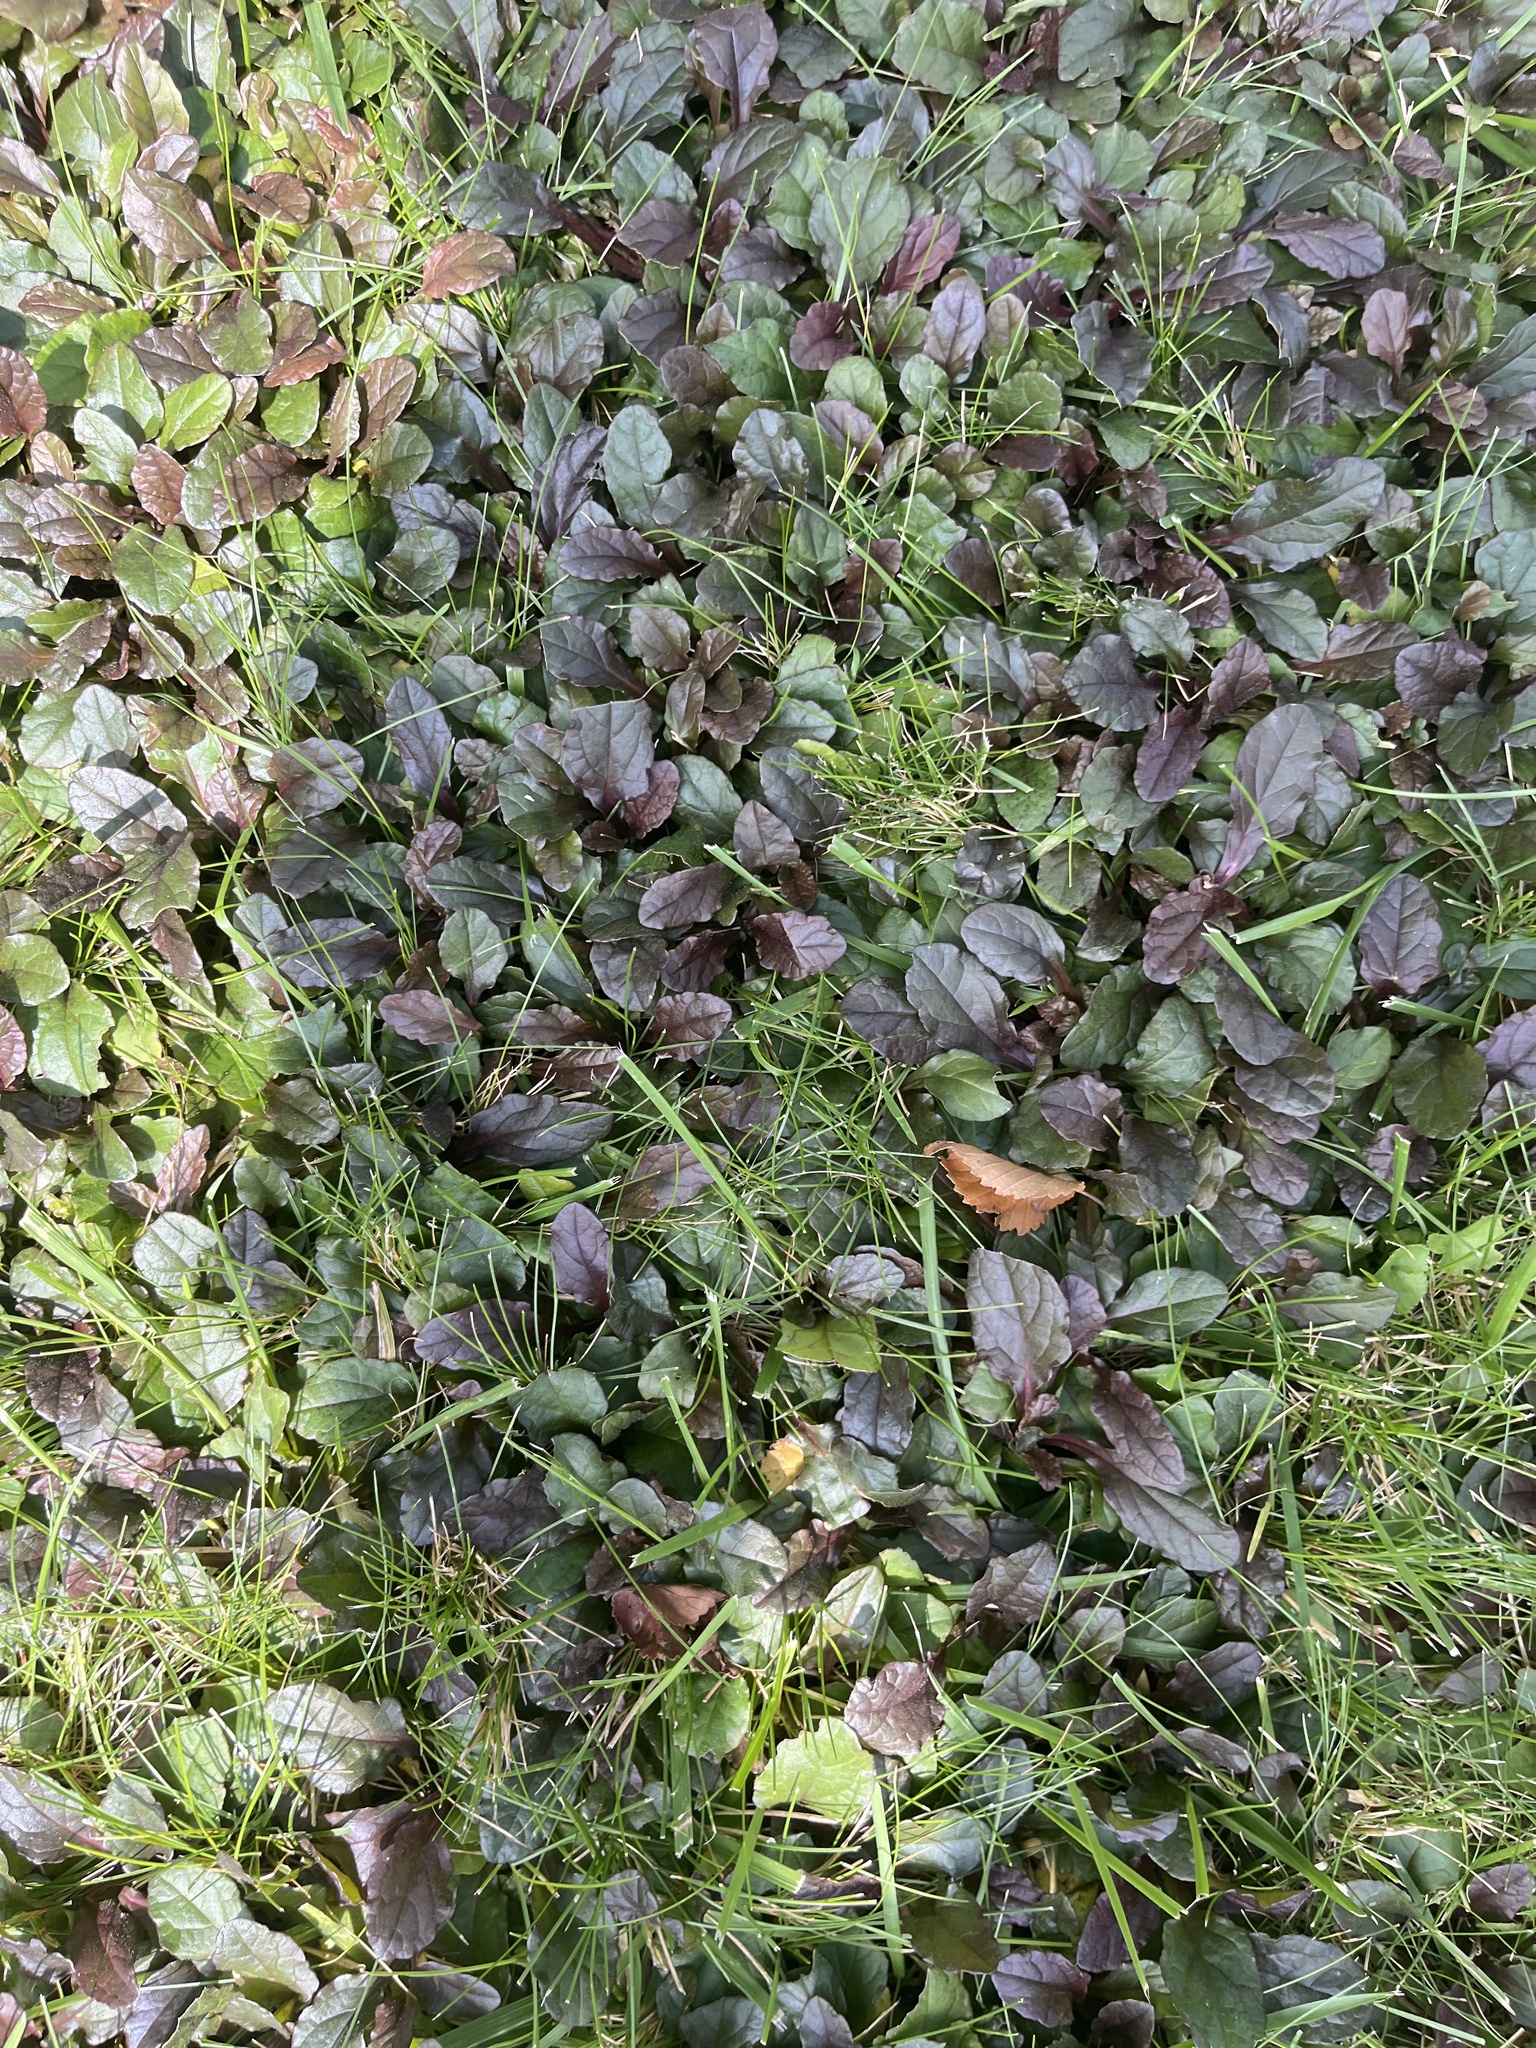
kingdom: Plantae
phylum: Tracheophyta
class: Magnoliopsida
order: Lamiales
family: Lamiaceae
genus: Ajuga
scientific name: Ajuga reptans
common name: Bugle
